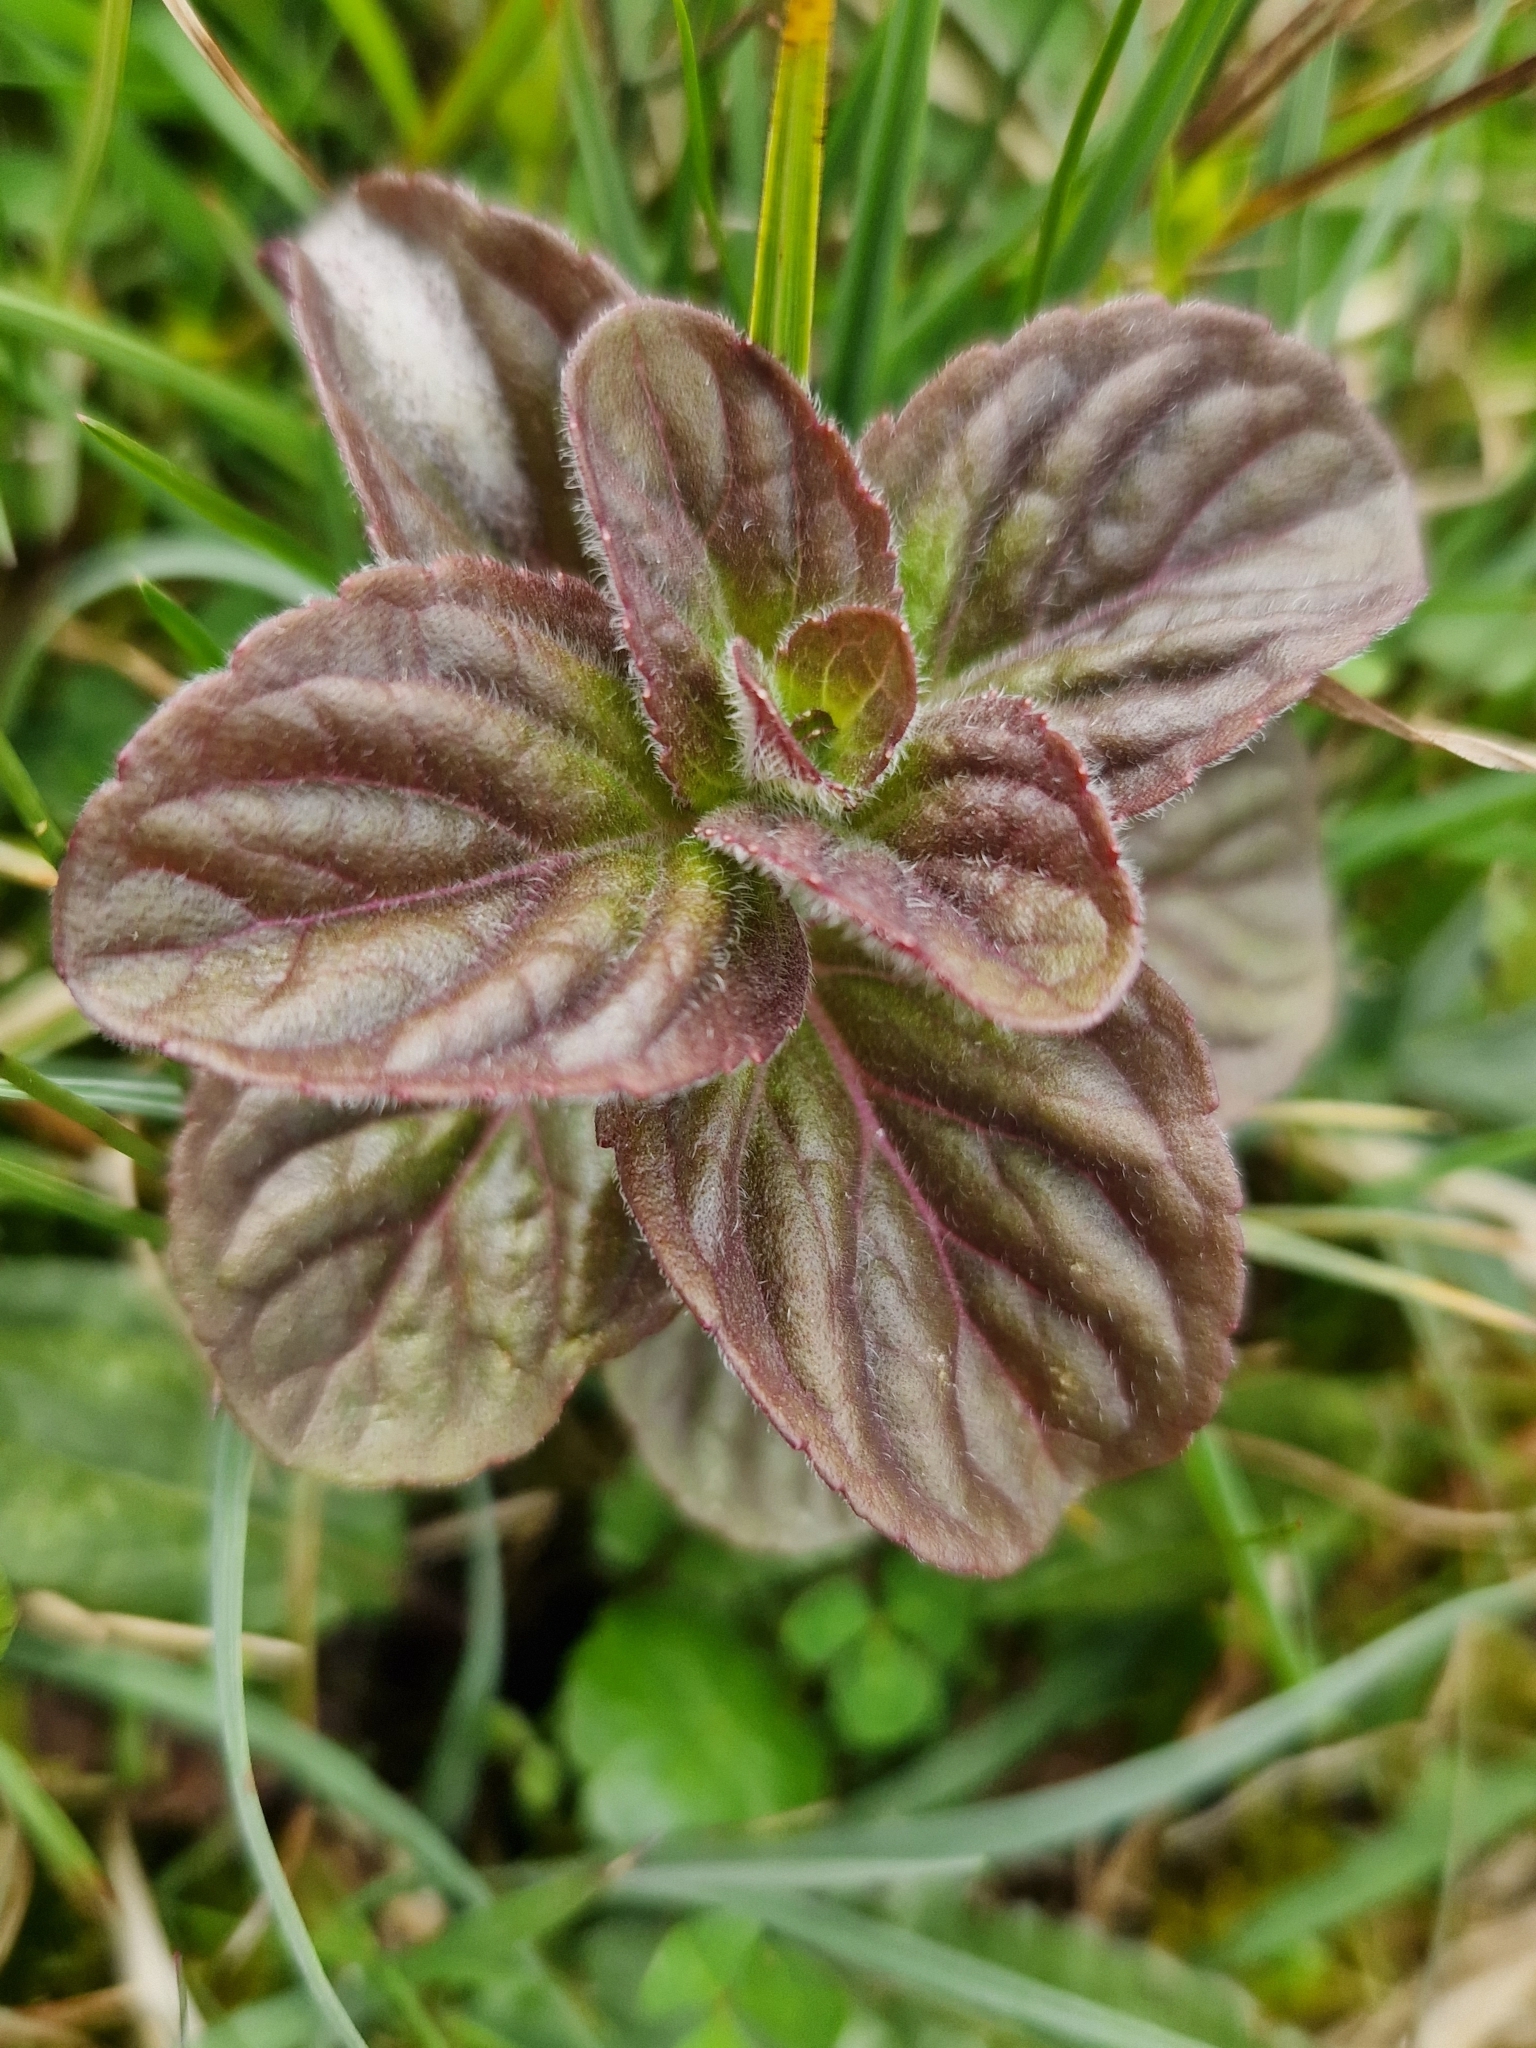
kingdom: Plantae
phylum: Tracheophyta
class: Magnoliopsida
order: Lamiales
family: Lamiaceae
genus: Mentha
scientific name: Mentha aquatica
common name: Water mint
